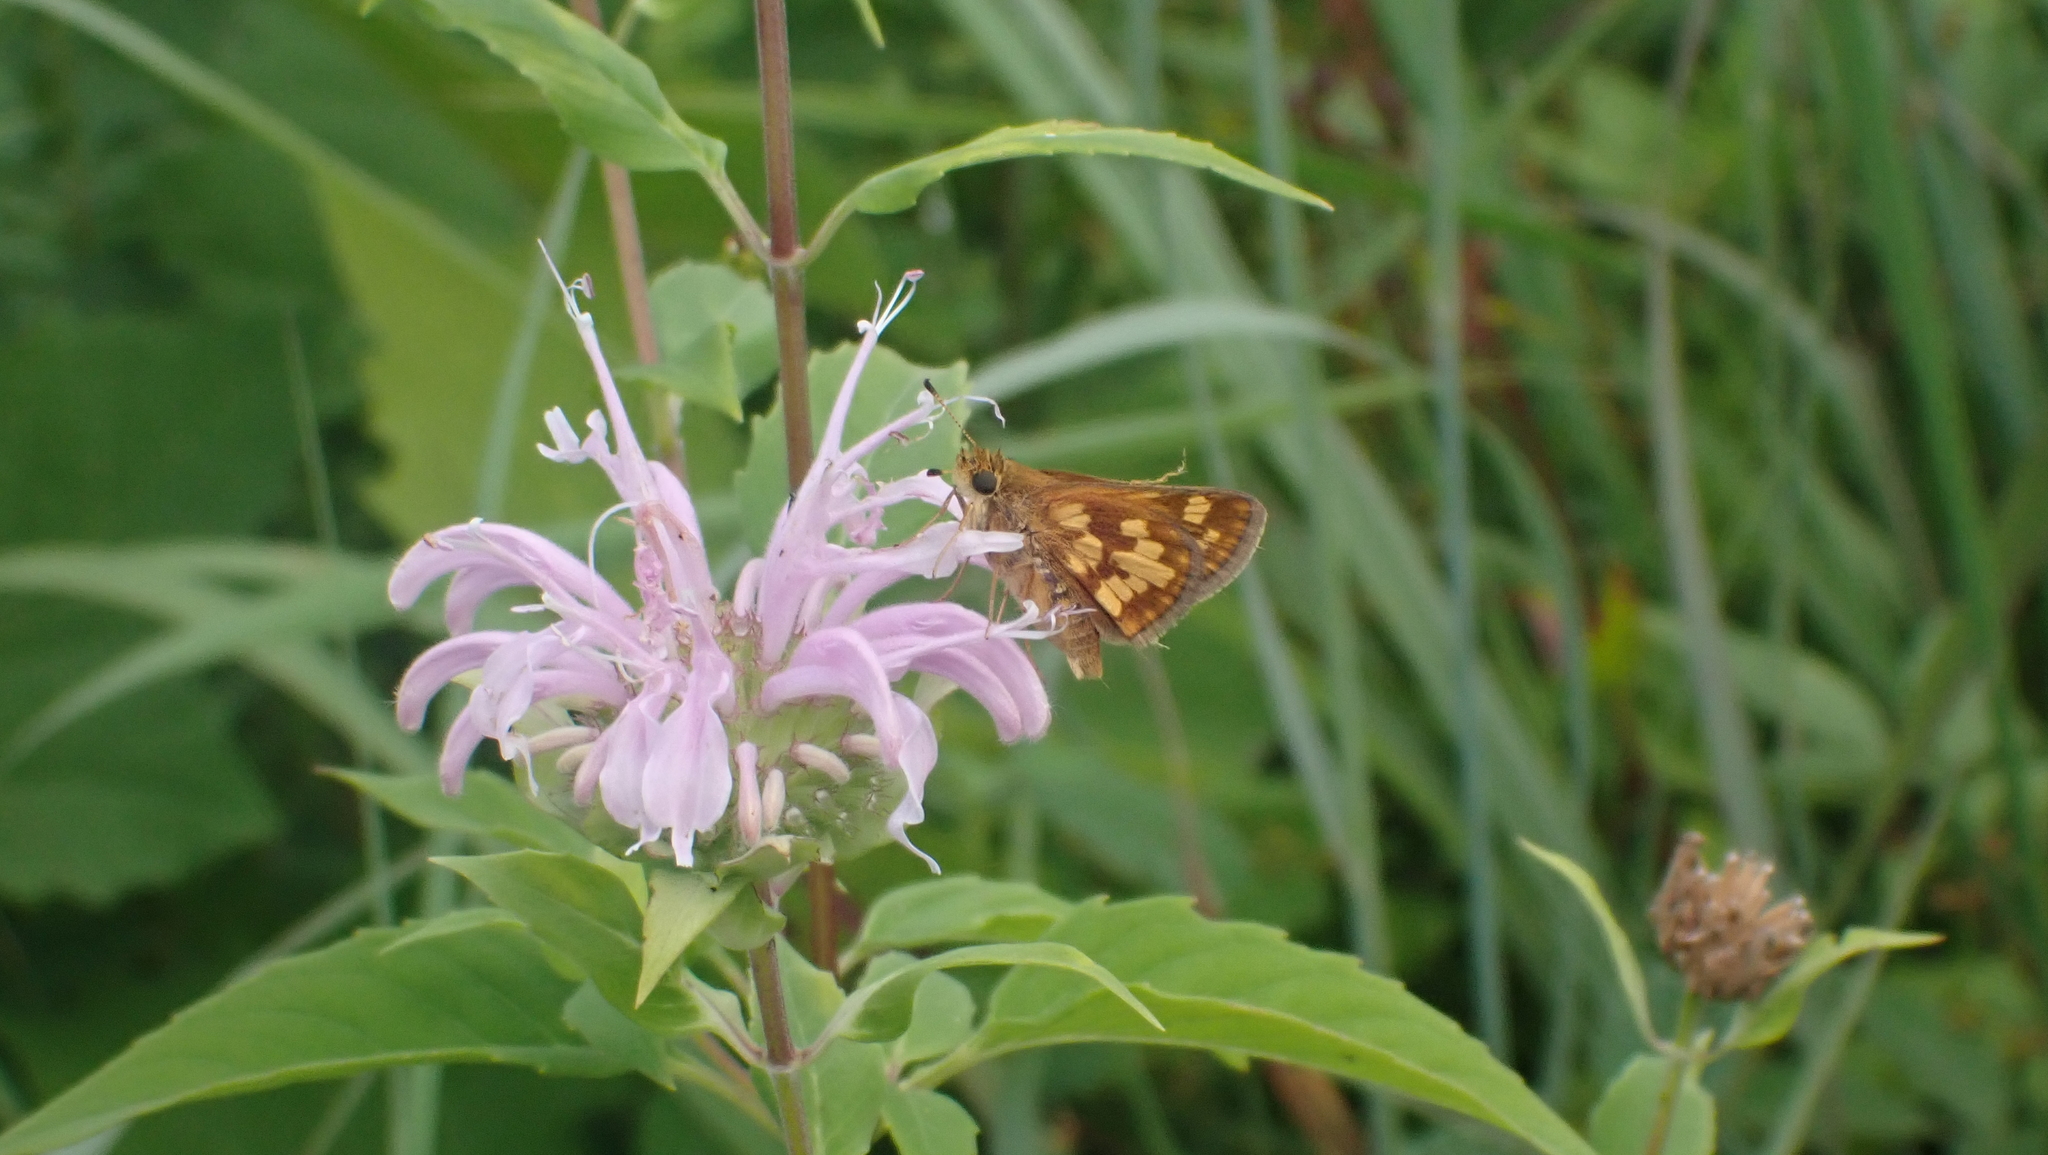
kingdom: Plantae
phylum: Tracheophyta
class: Magnoliopsida
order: Lamiales
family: Lamiaceae
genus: Monarda
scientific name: Monarda fistulosa
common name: Purple beebalm
